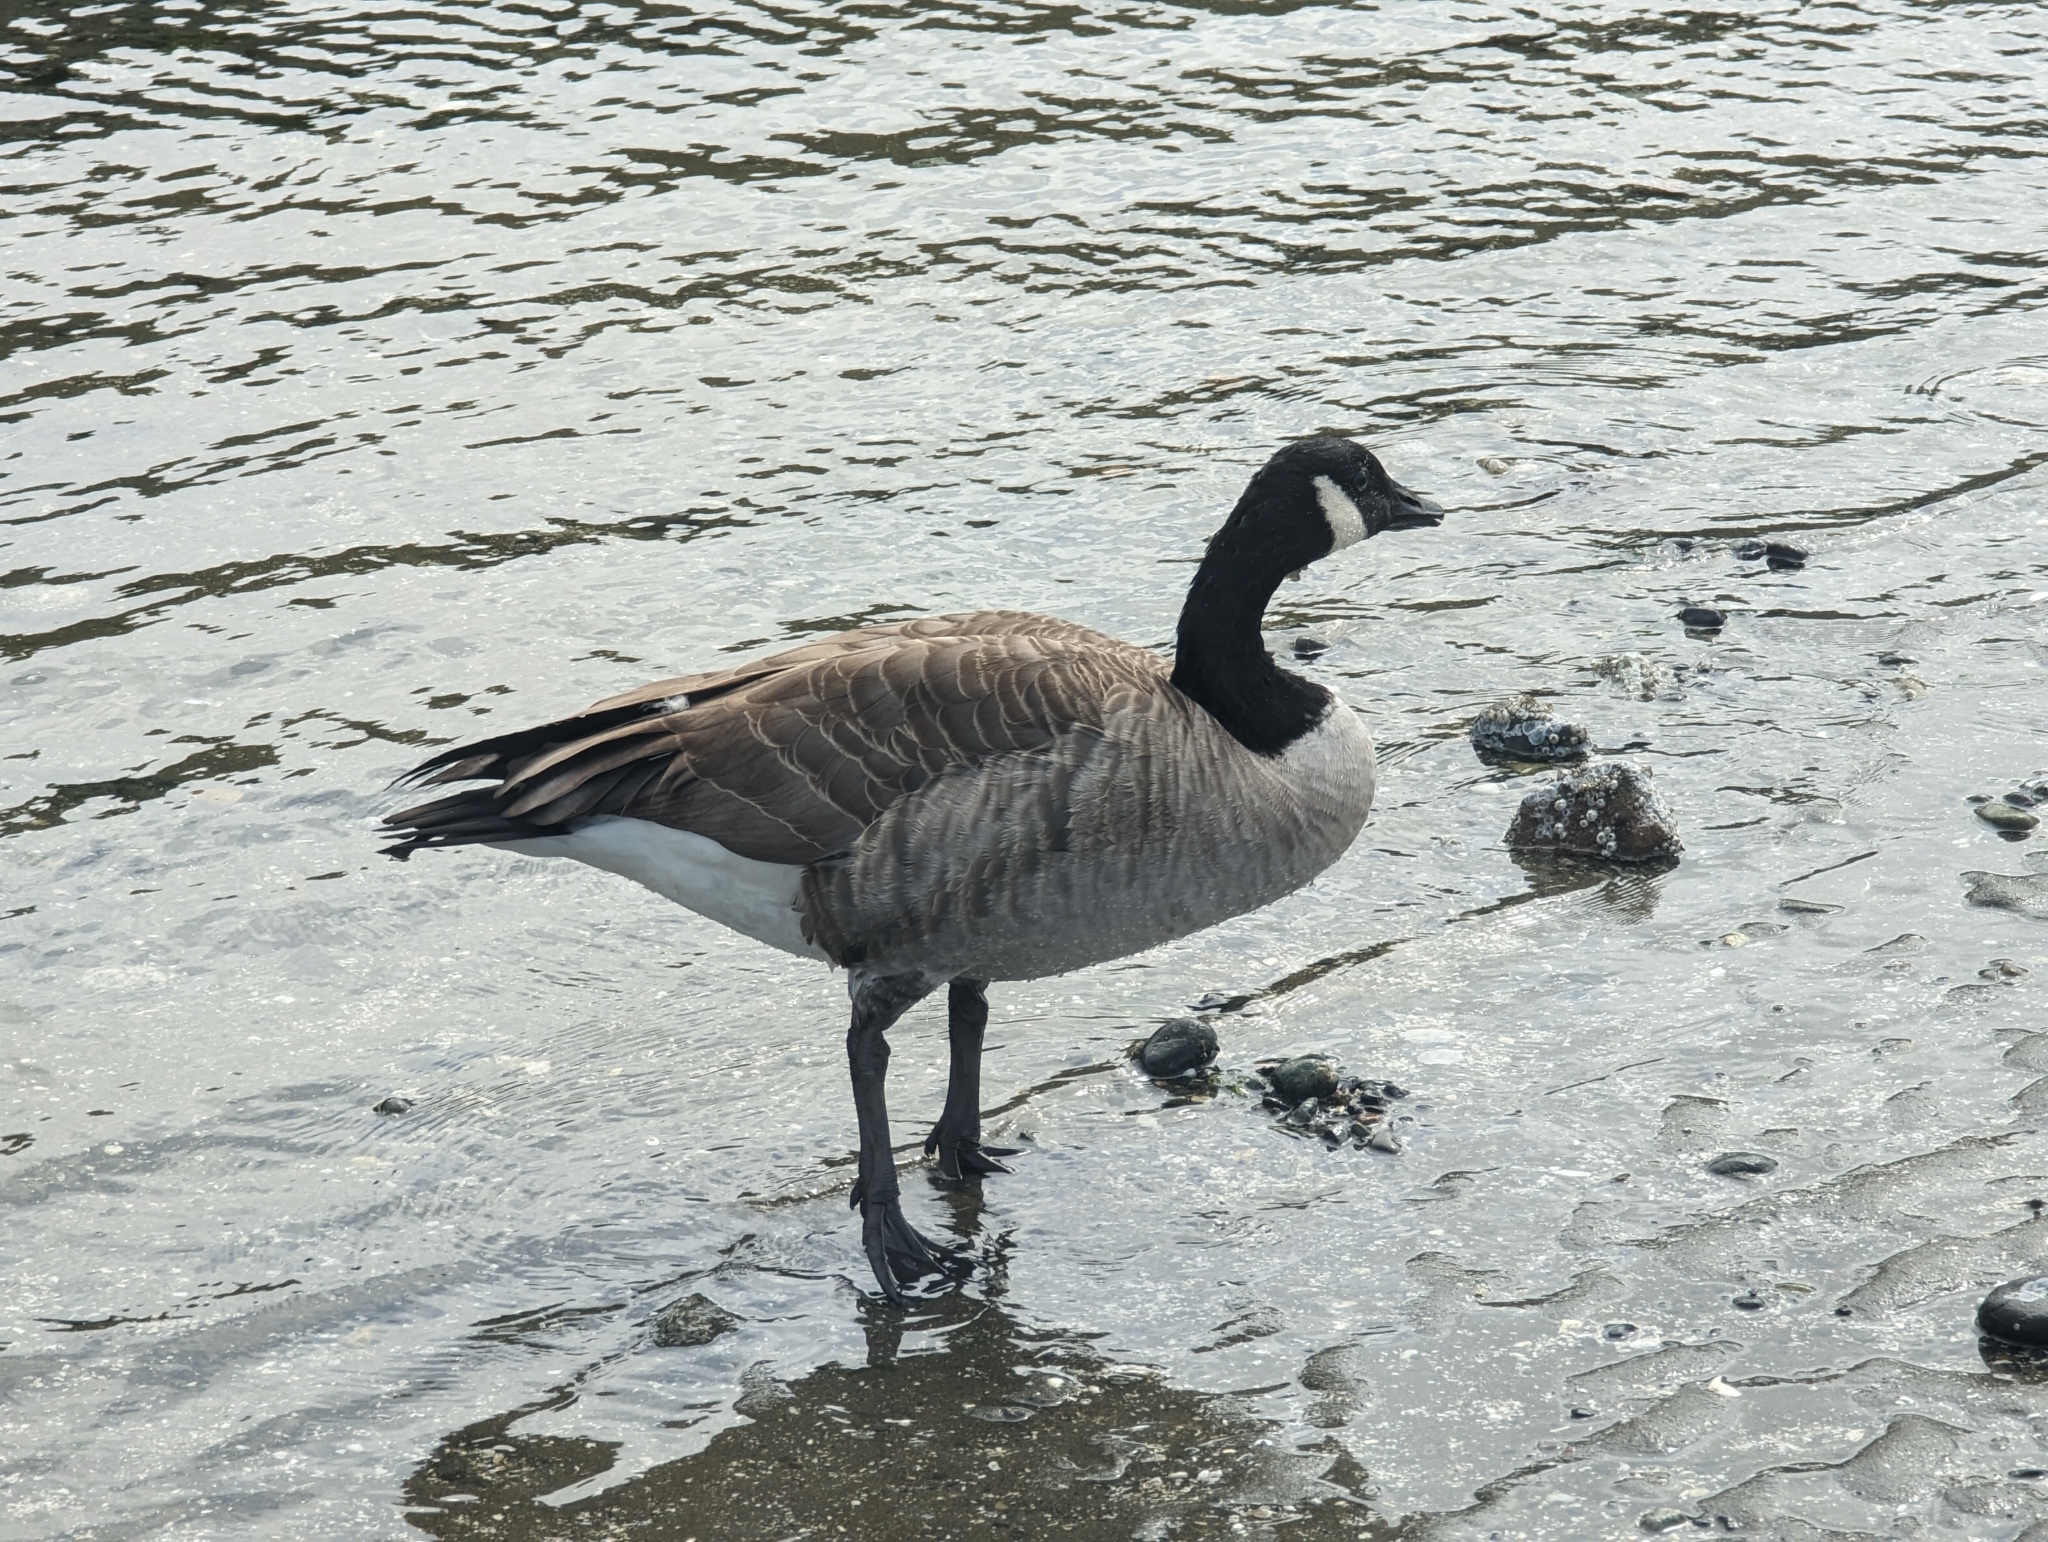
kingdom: Animalia
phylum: Chordata
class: Aves
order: Anseriformes
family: Anatidae
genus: Branta
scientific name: Branta canadensis
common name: Canada goose
